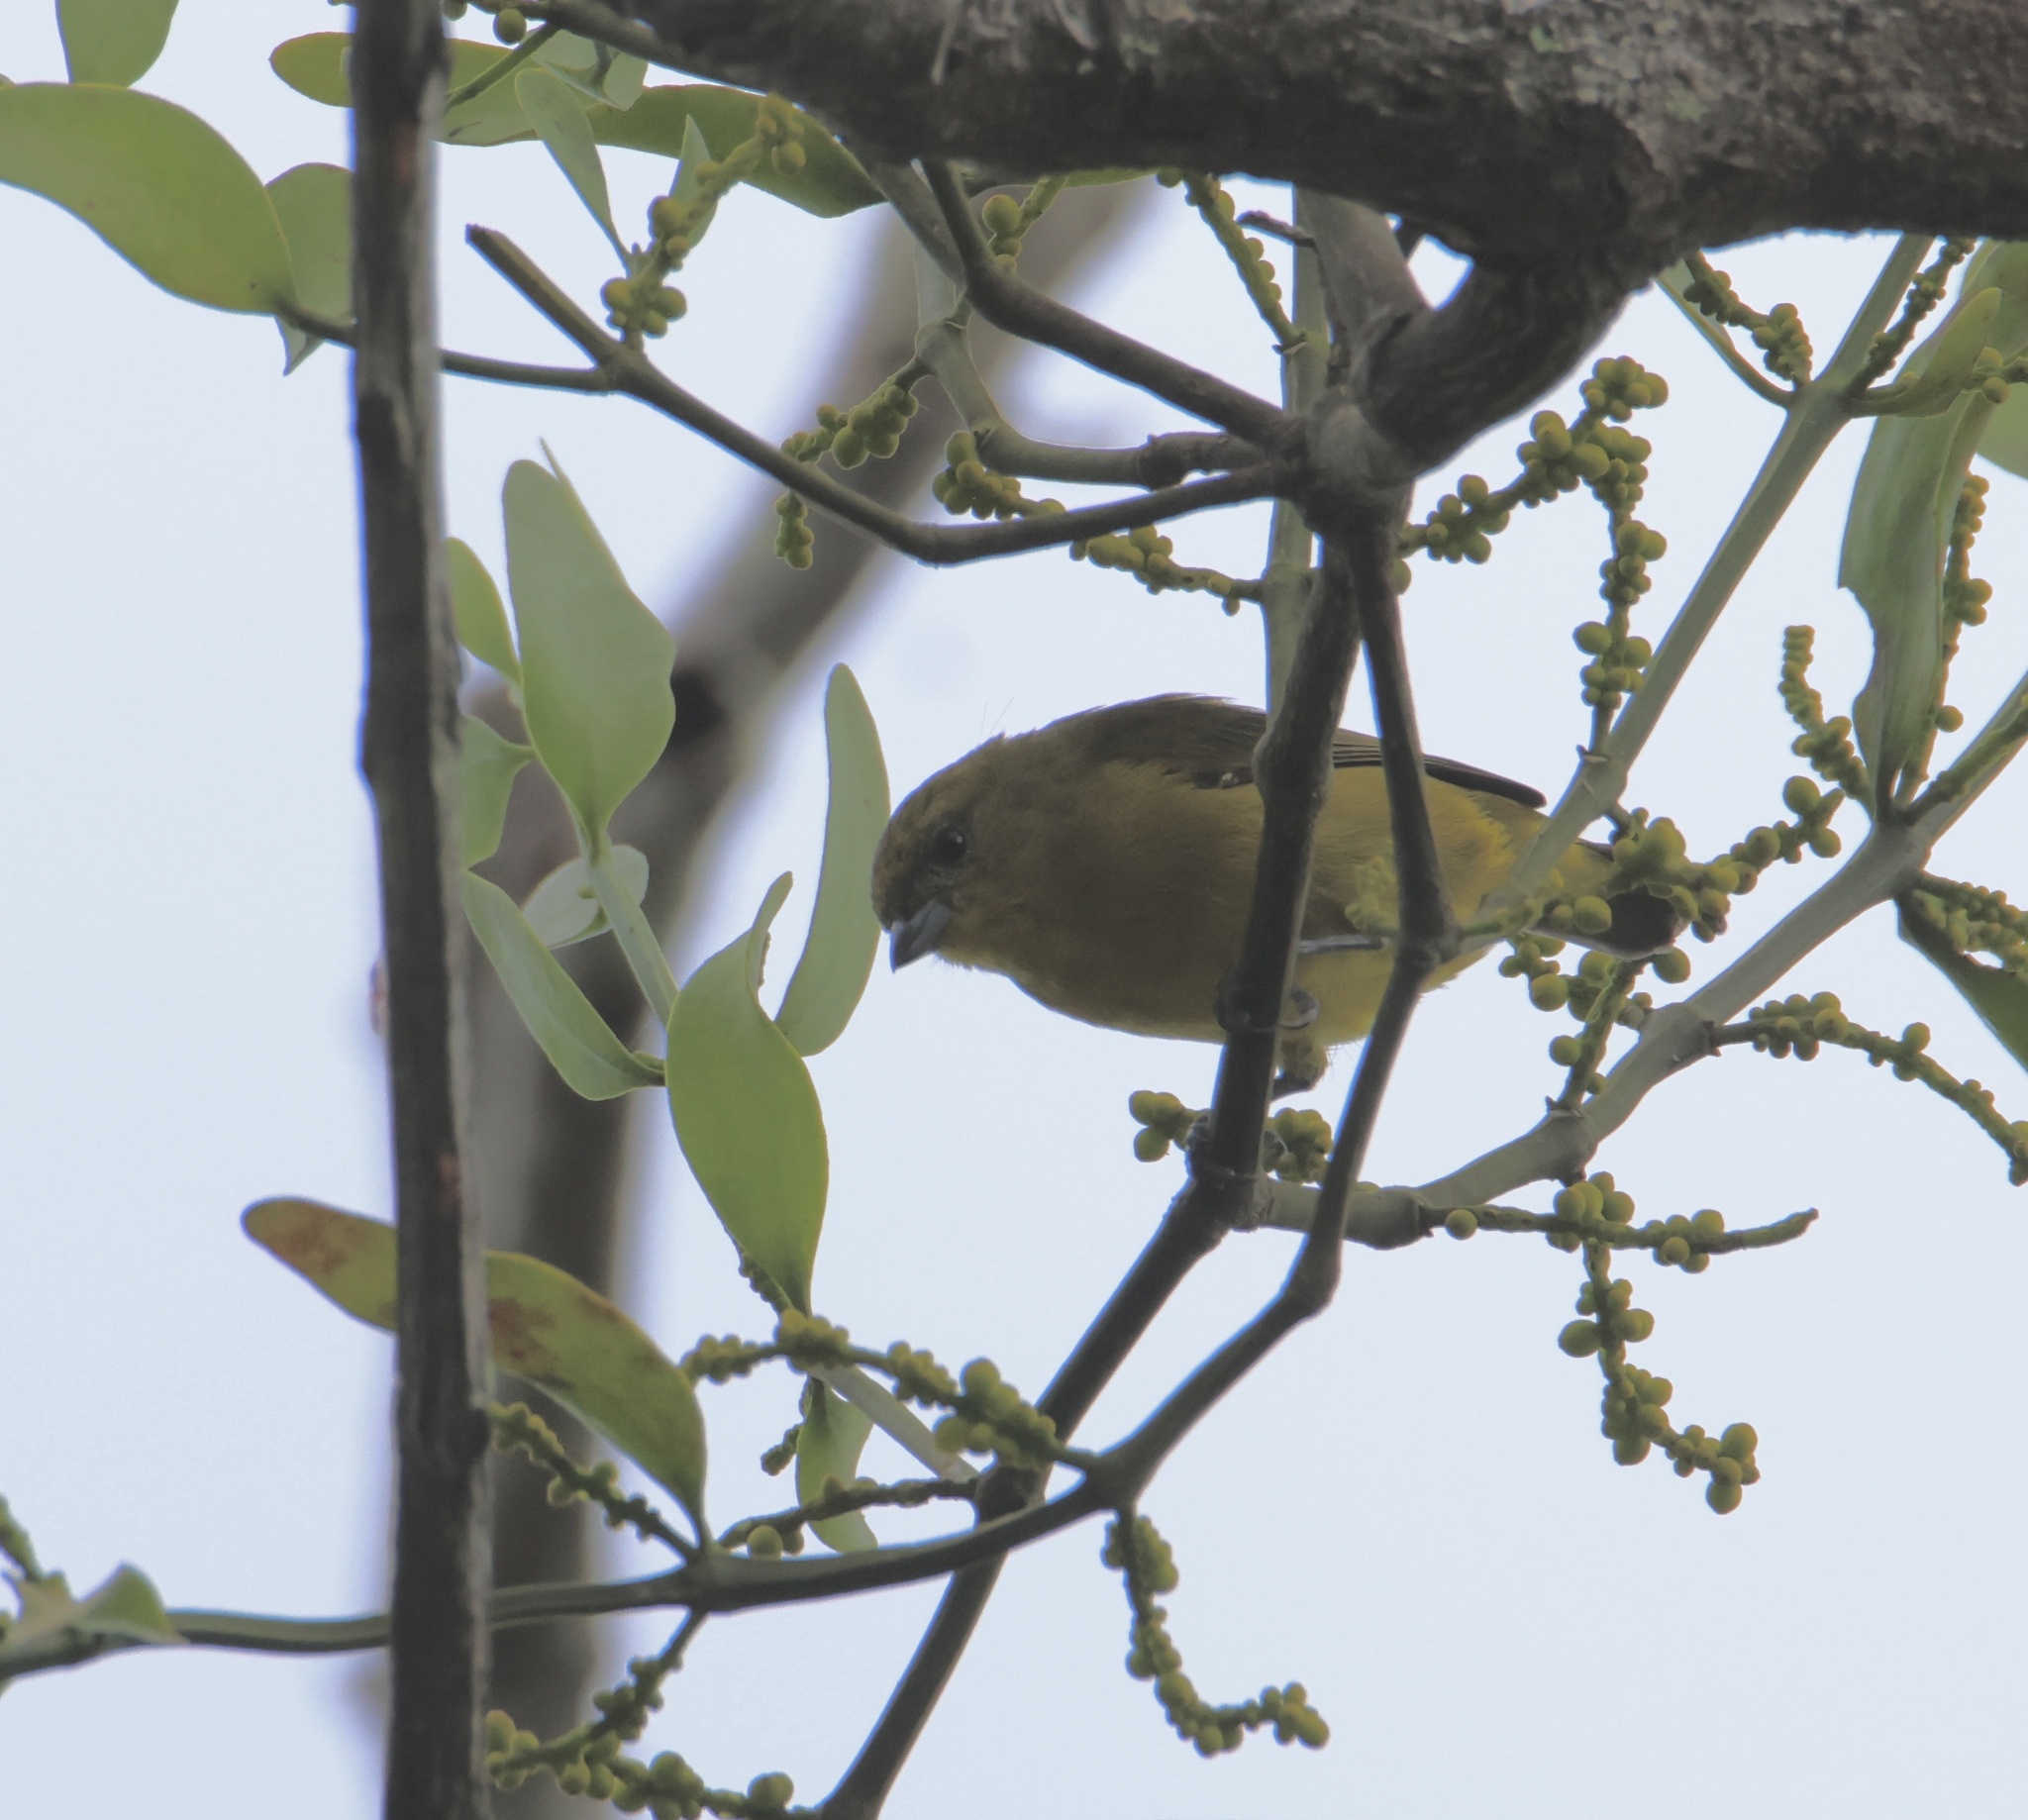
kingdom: Animalia
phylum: Chordata
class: Aves
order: Passeriformes
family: Fringillidae
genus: Euphonia
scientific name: Euphonia laniirostris
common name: Thick-billed euphonia
